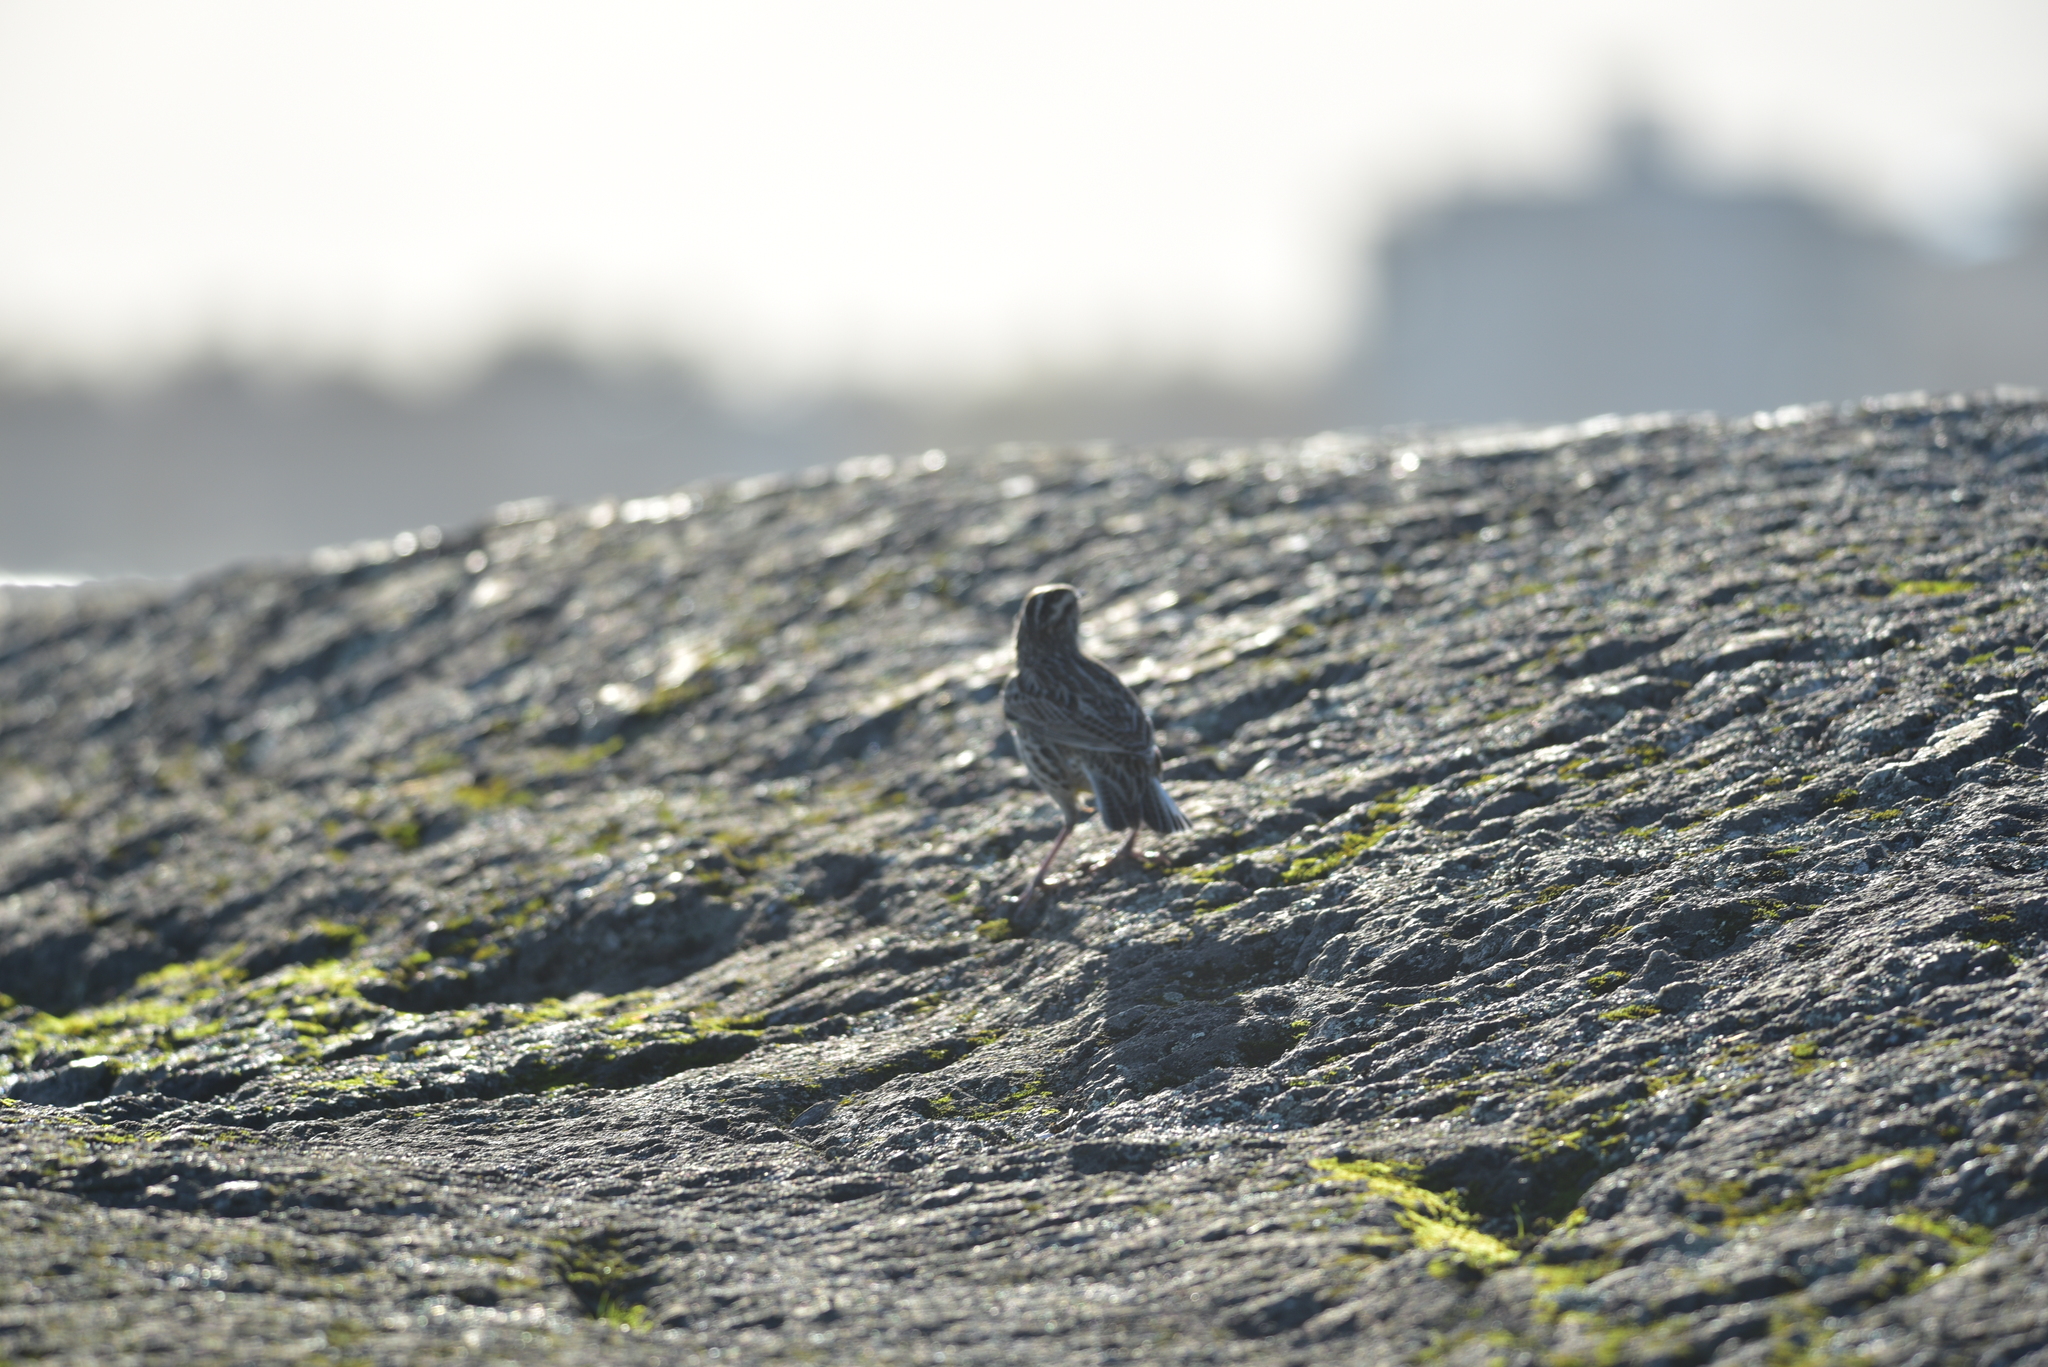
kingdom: Animalia
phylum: Chordata
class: Aves
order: Passeriformes
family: Icteridae
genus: Sturnella
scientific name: Sturnella neglecta
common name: Western meadowlark
